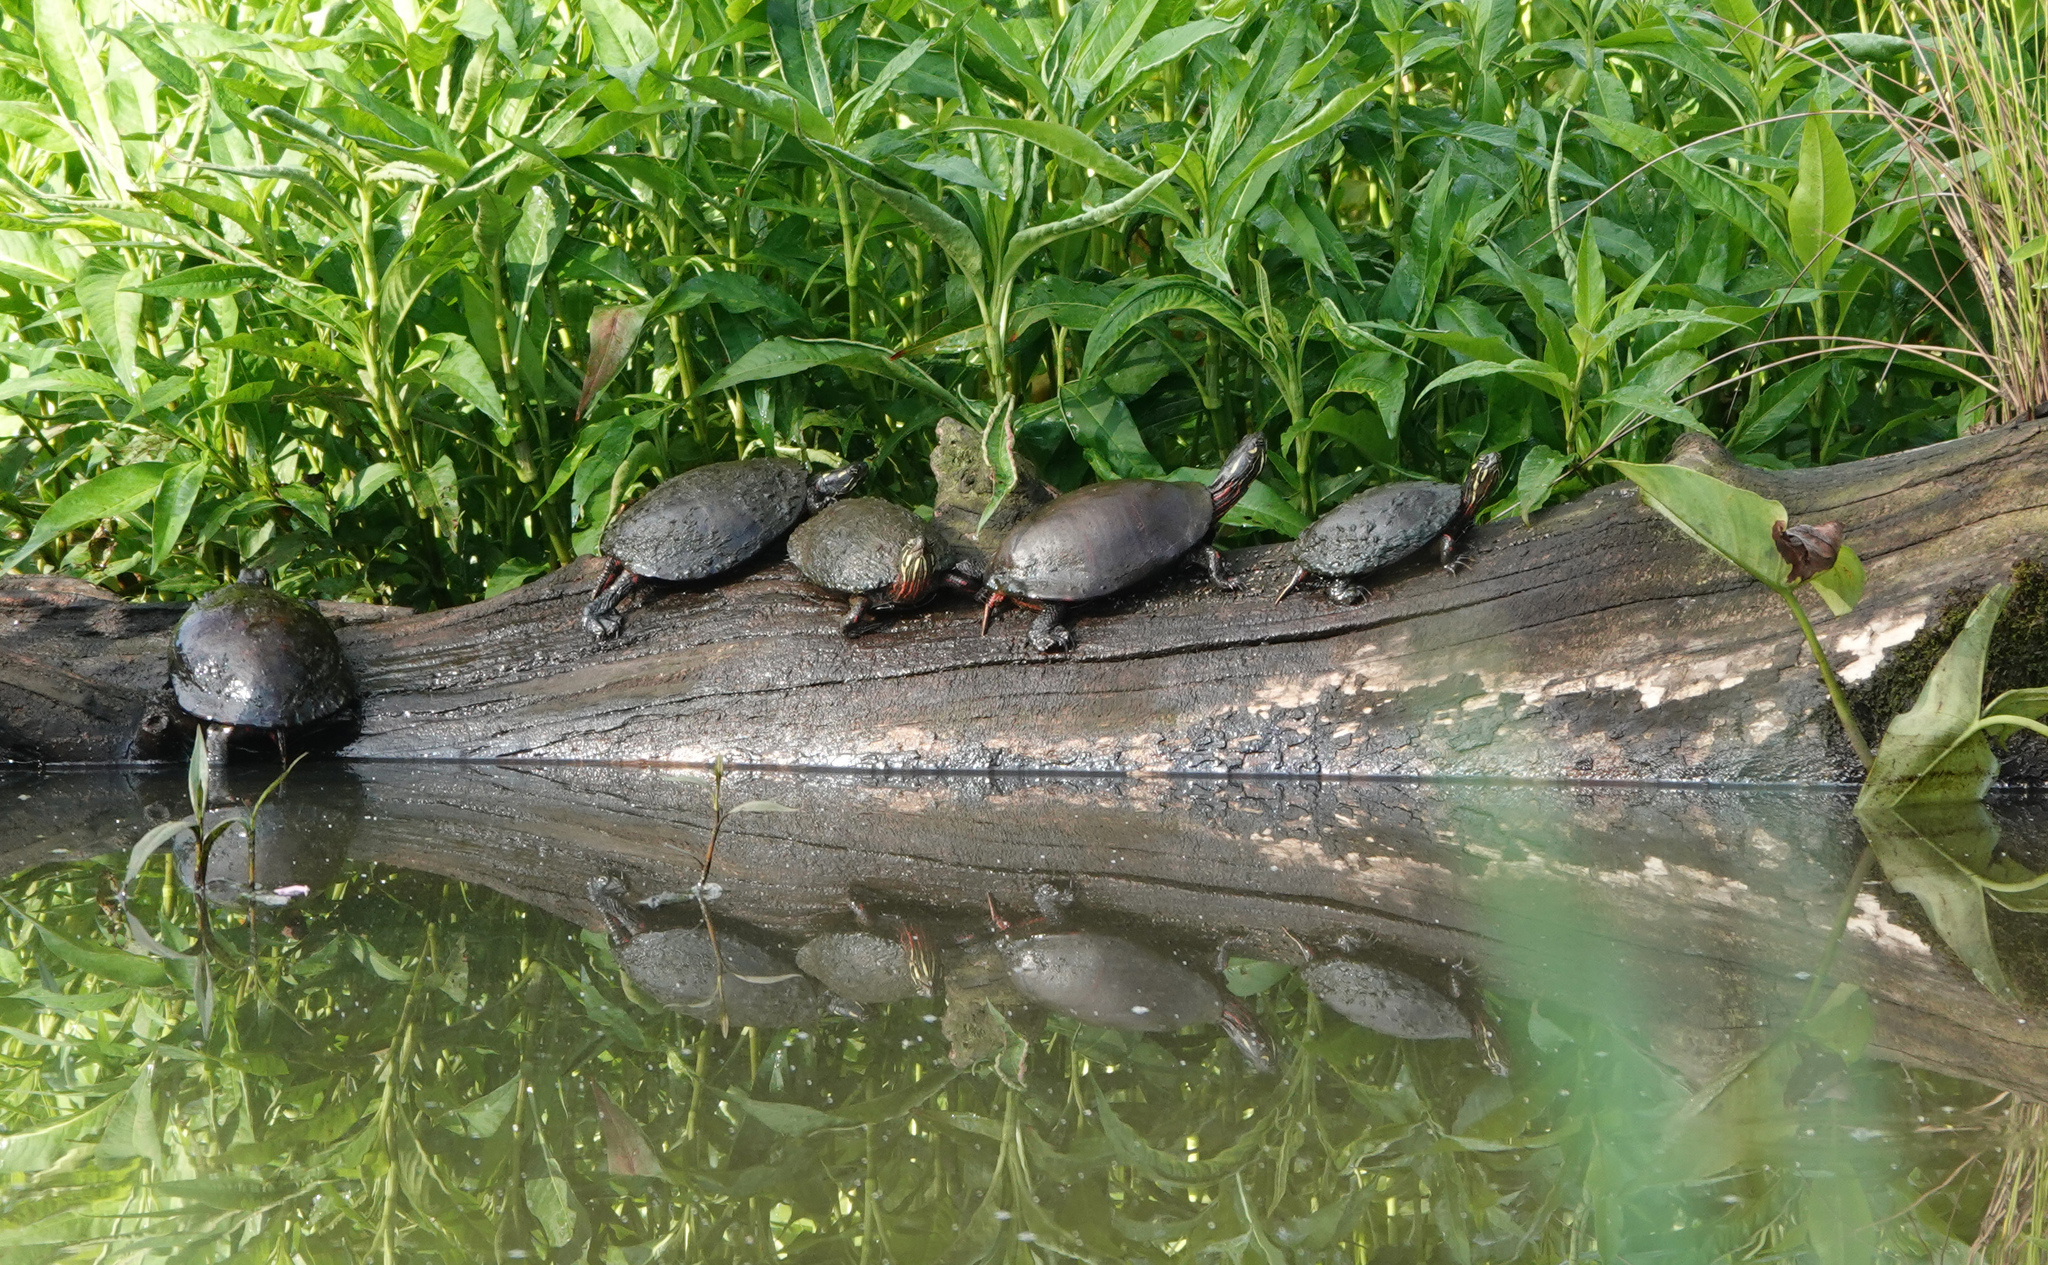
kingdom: Animalia
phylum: Chordata
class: Testudines
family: Emydidae
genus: Chrysemys
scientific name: Chrysemys picta
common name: Painted turtle
